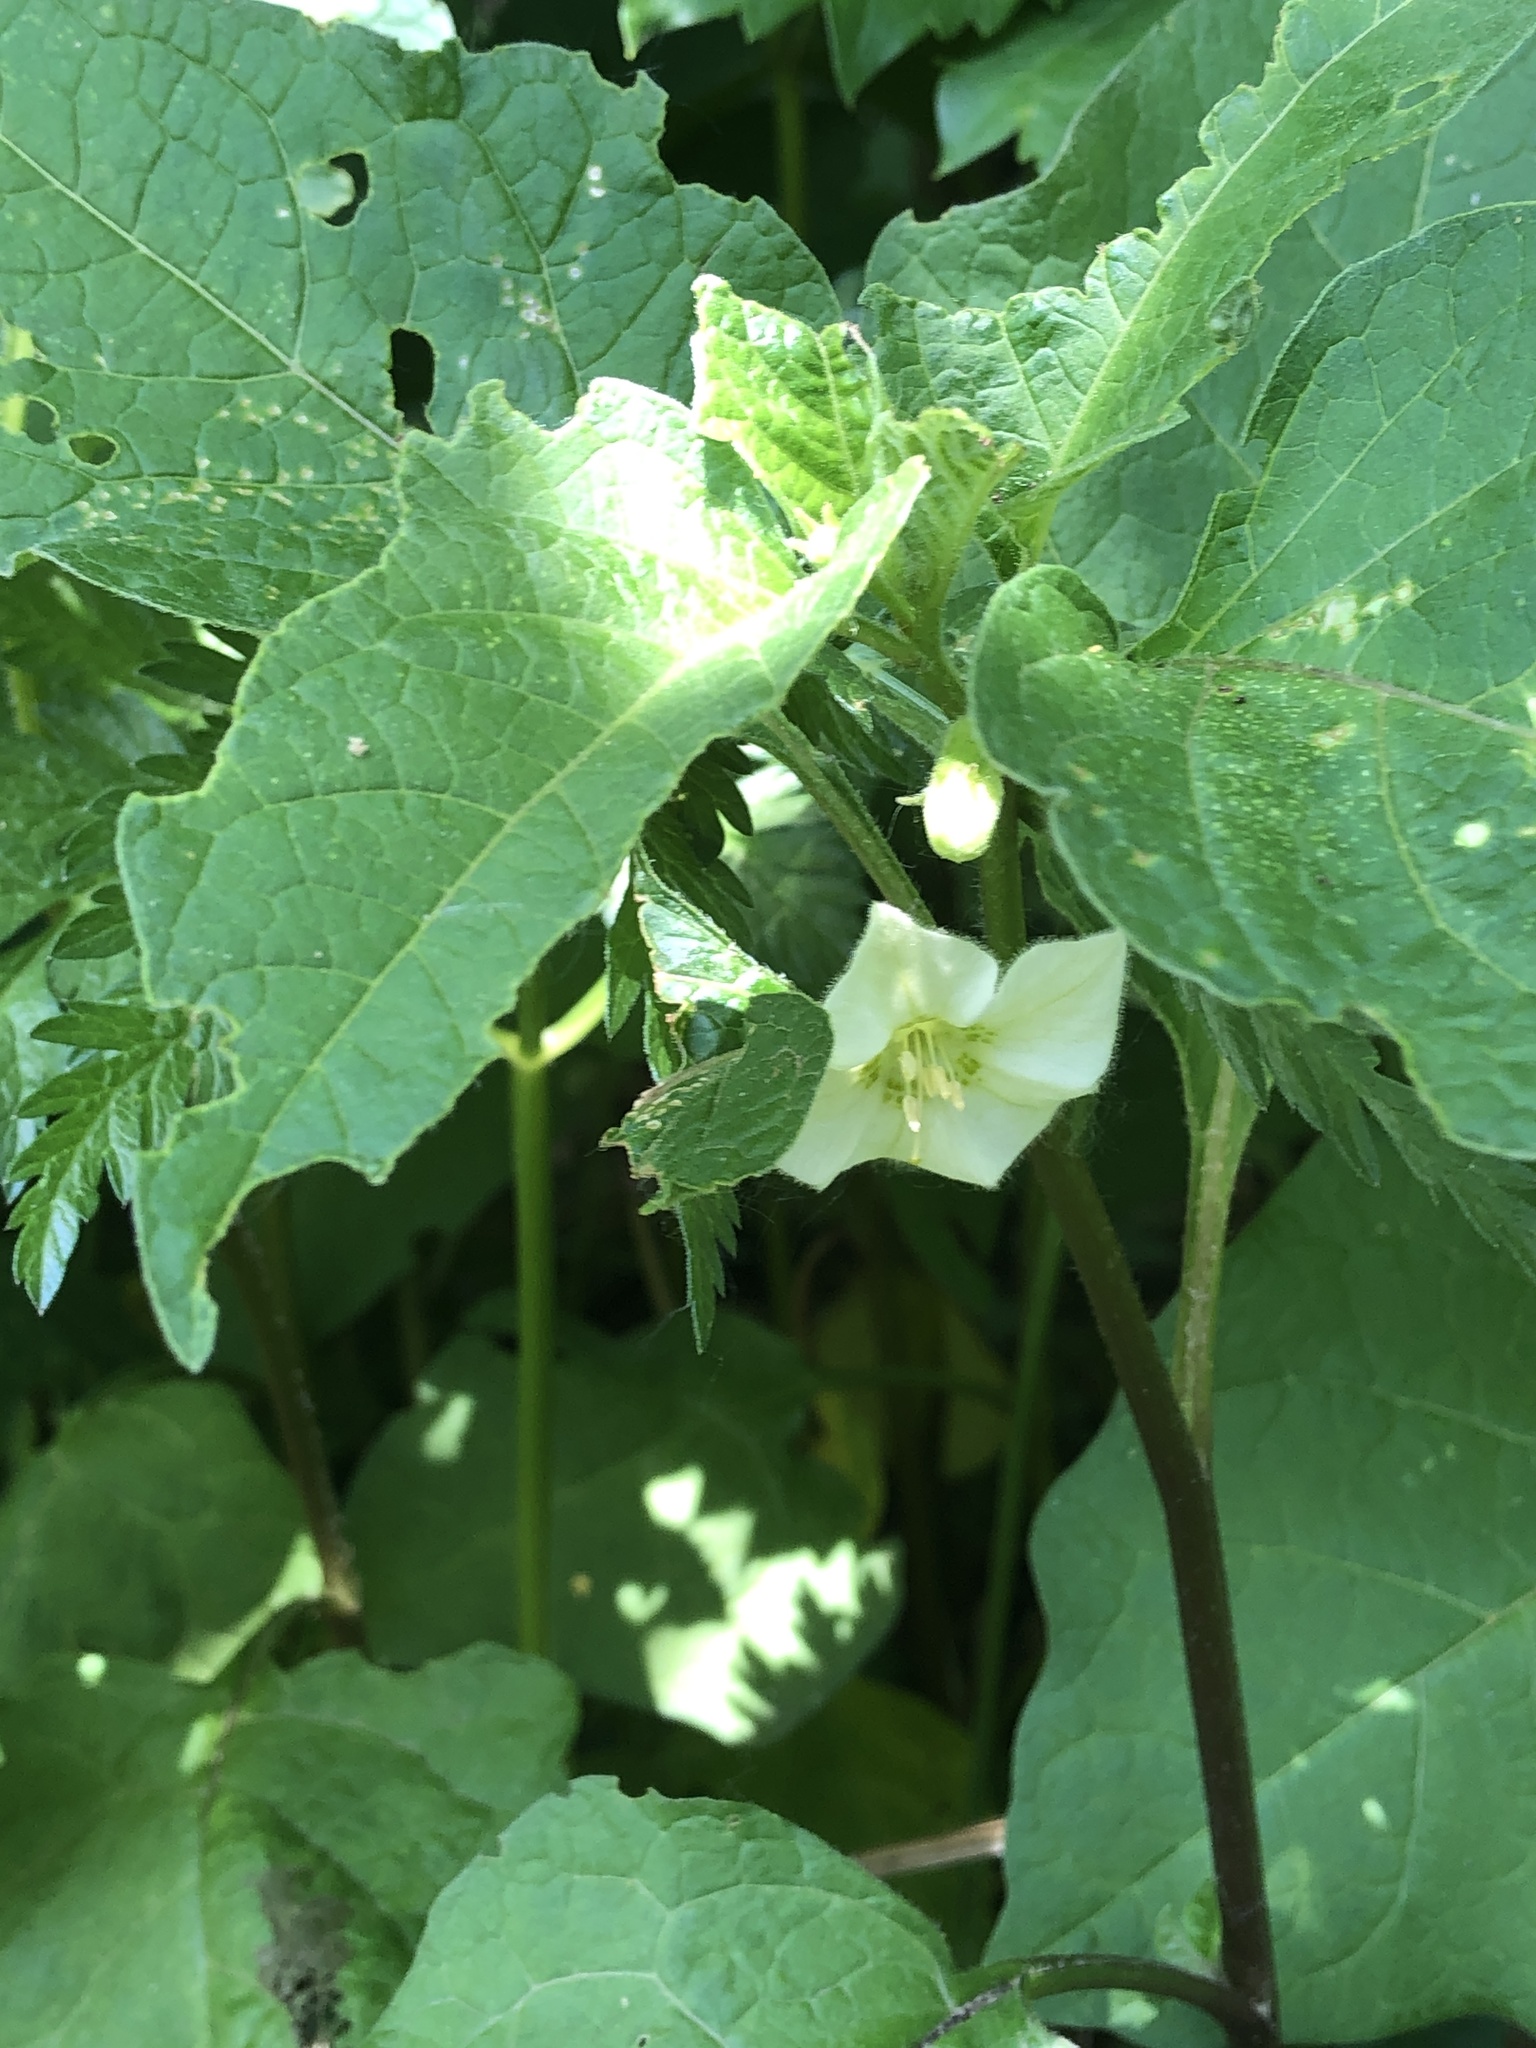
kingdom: Plantae
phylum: Tracheophyta
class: Magnoliopsida
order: Solanales
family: Solanaceae
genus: Alkekengi
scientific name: Alkekengi officinarum
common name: Japanese-lantern
